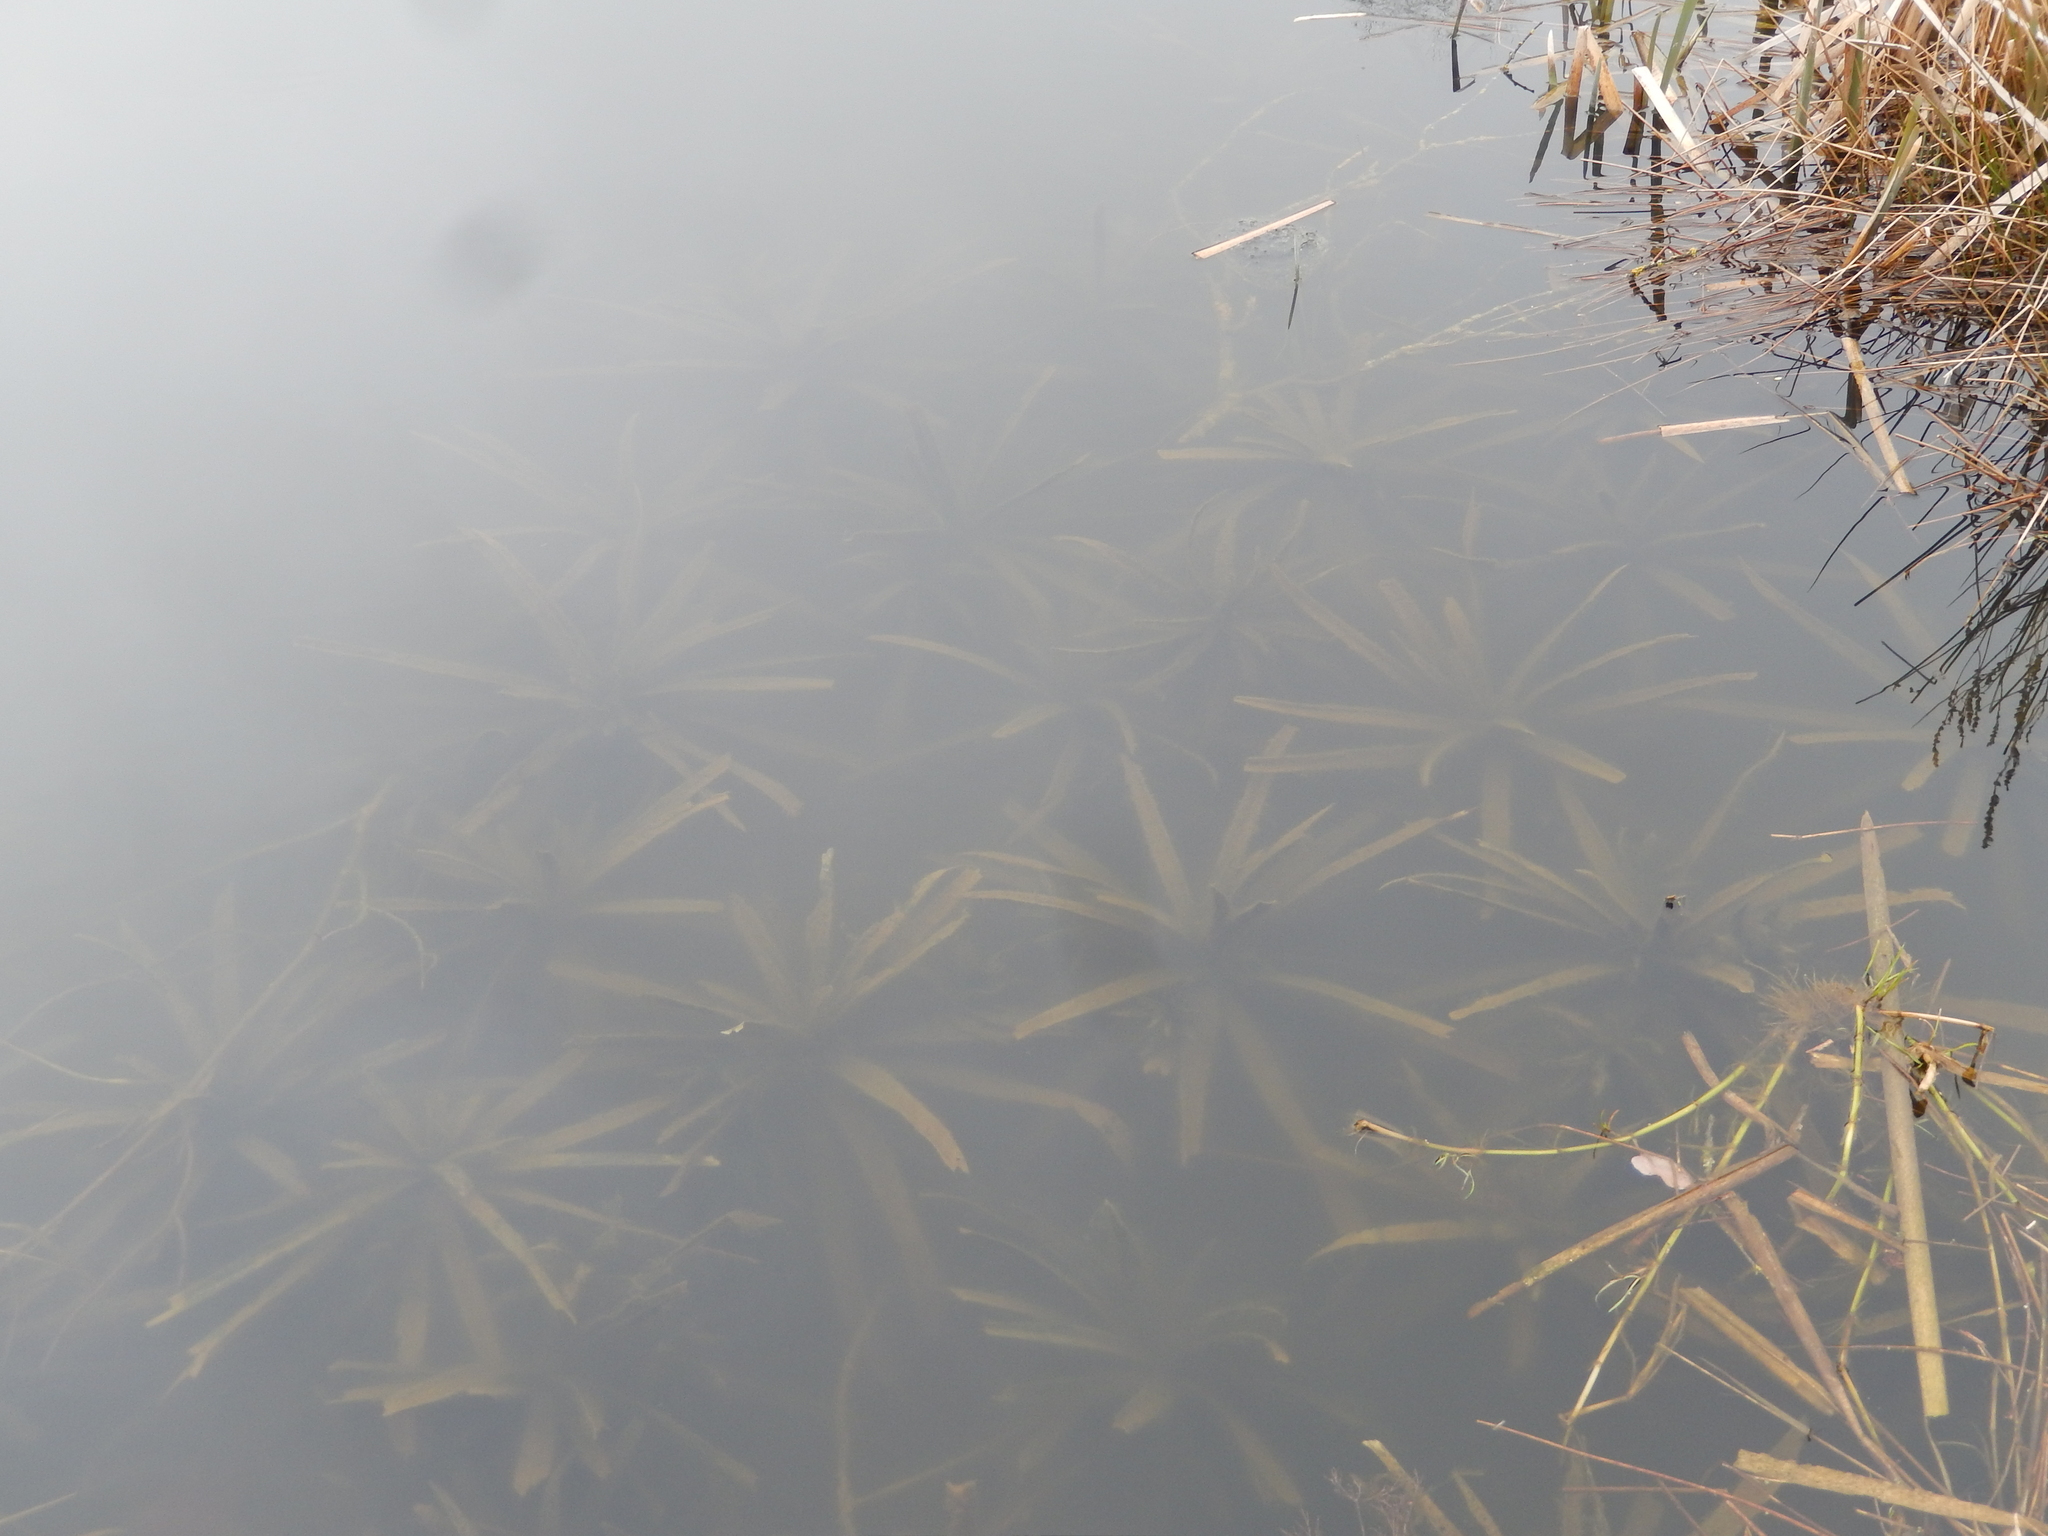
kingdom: Plantae
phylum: Tracheophyta
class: Liliopsida
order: Alismatales
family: Hydrocharitaceae
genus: Stratiotes
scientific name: Stratiotes aloides
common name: Water-soldier
